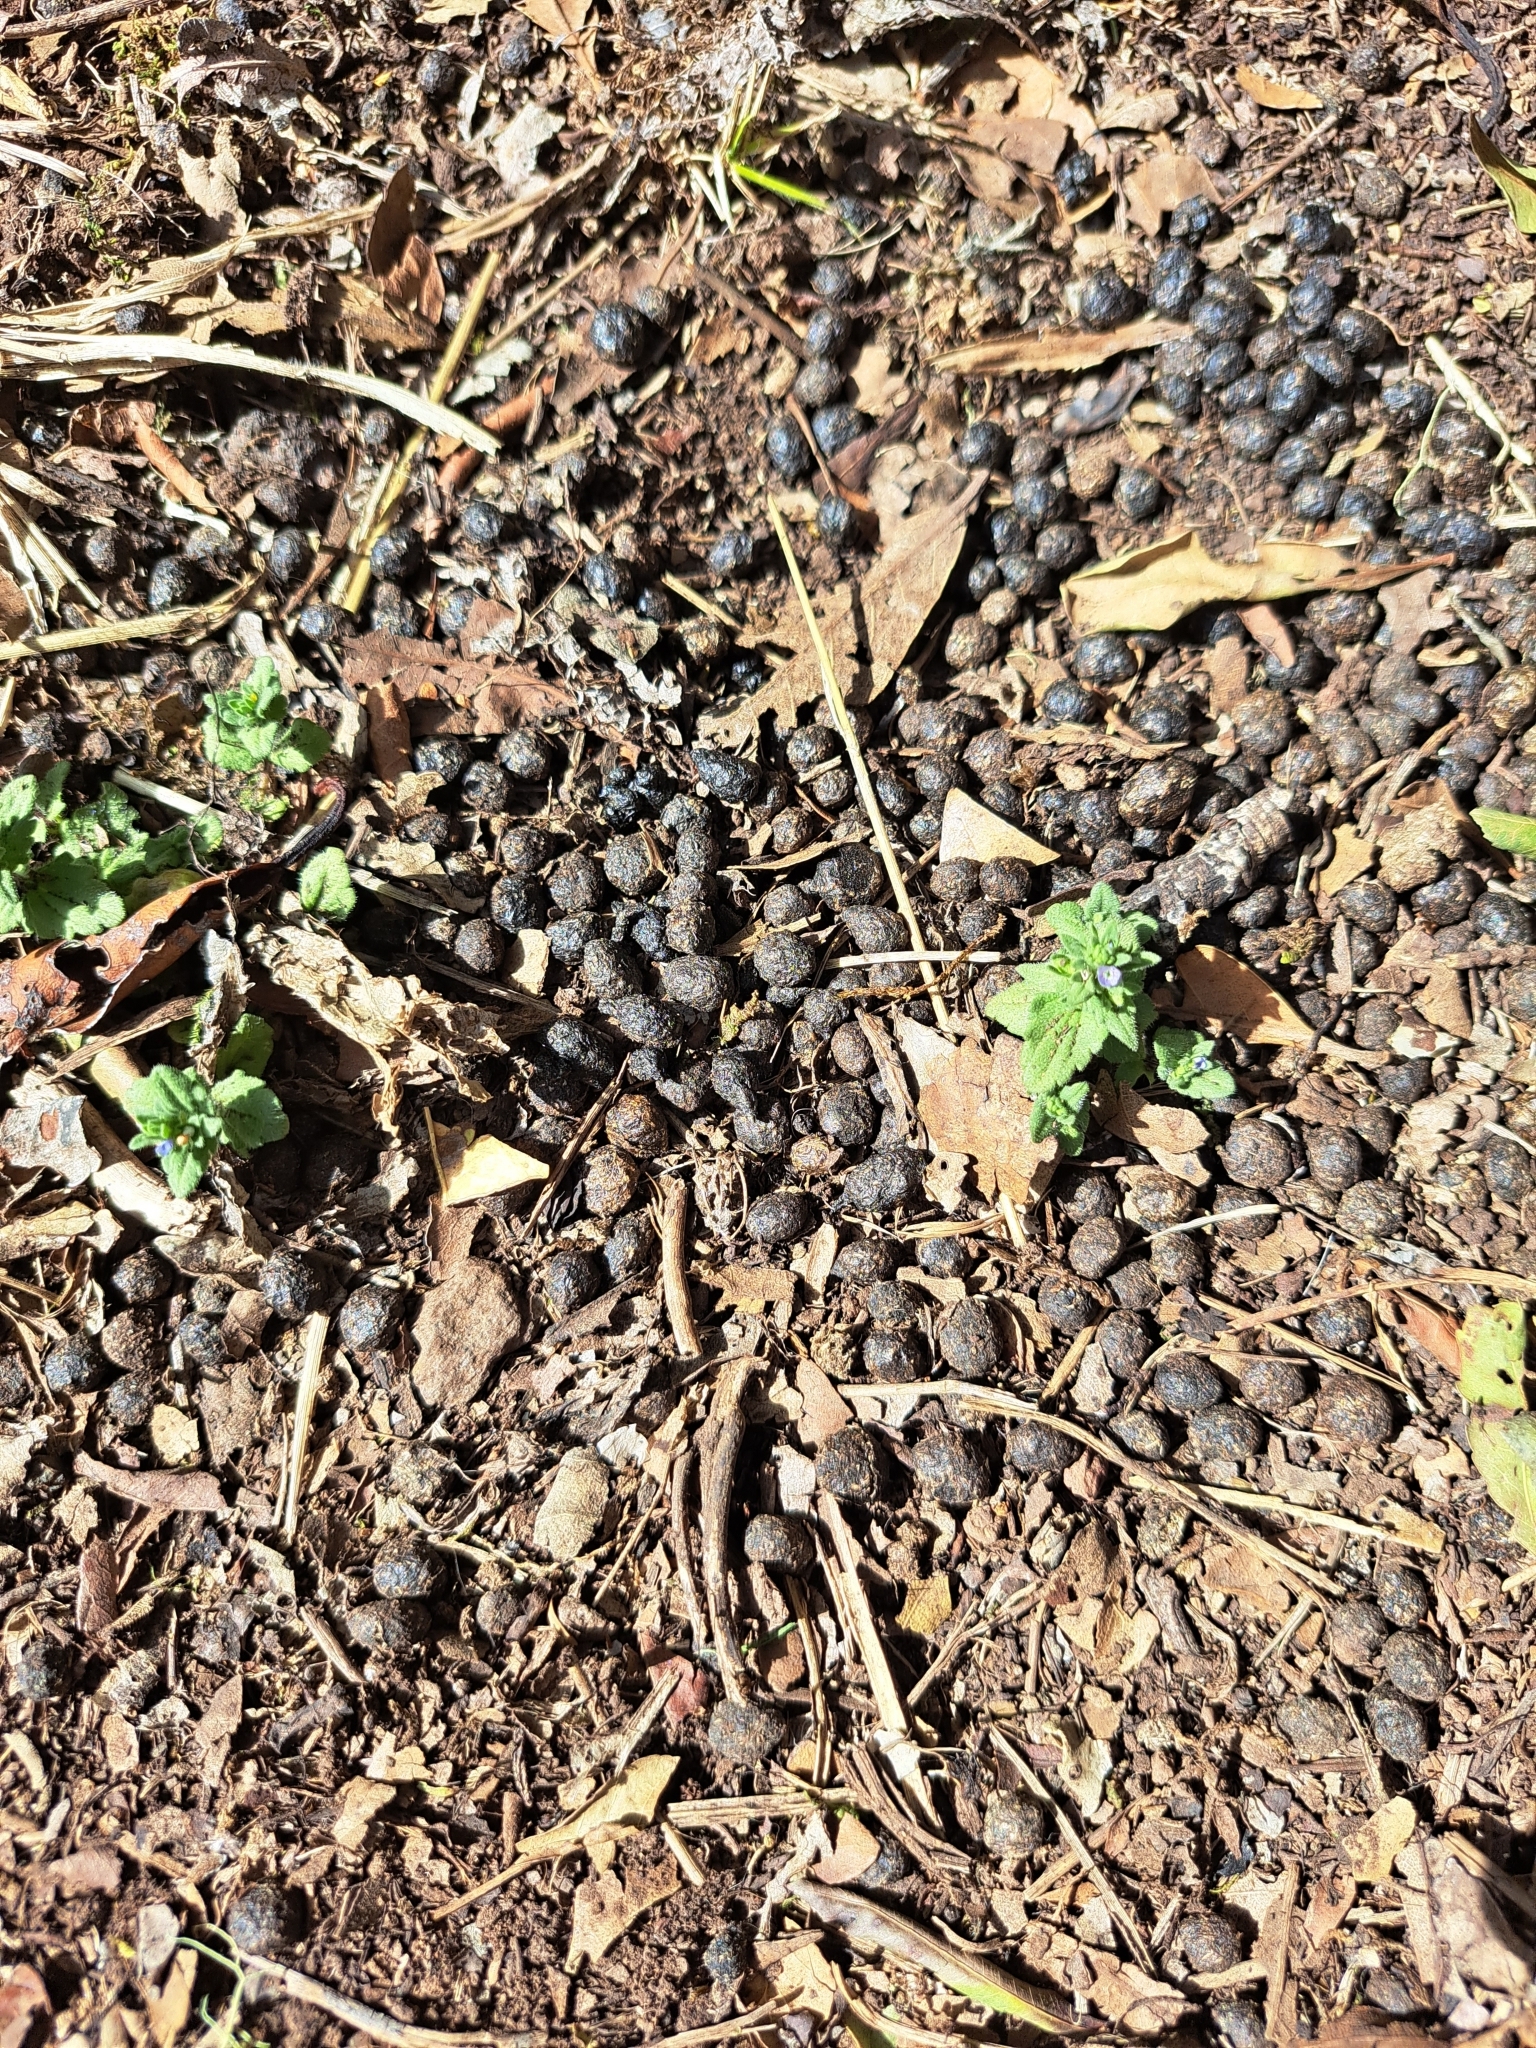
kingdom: Animalia
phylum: Chordata
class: Mammalia
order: Lagomorpha
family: Leporidae
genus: Oryctolagus
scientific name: Oryctolagus cuniculus
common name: European rabbit
